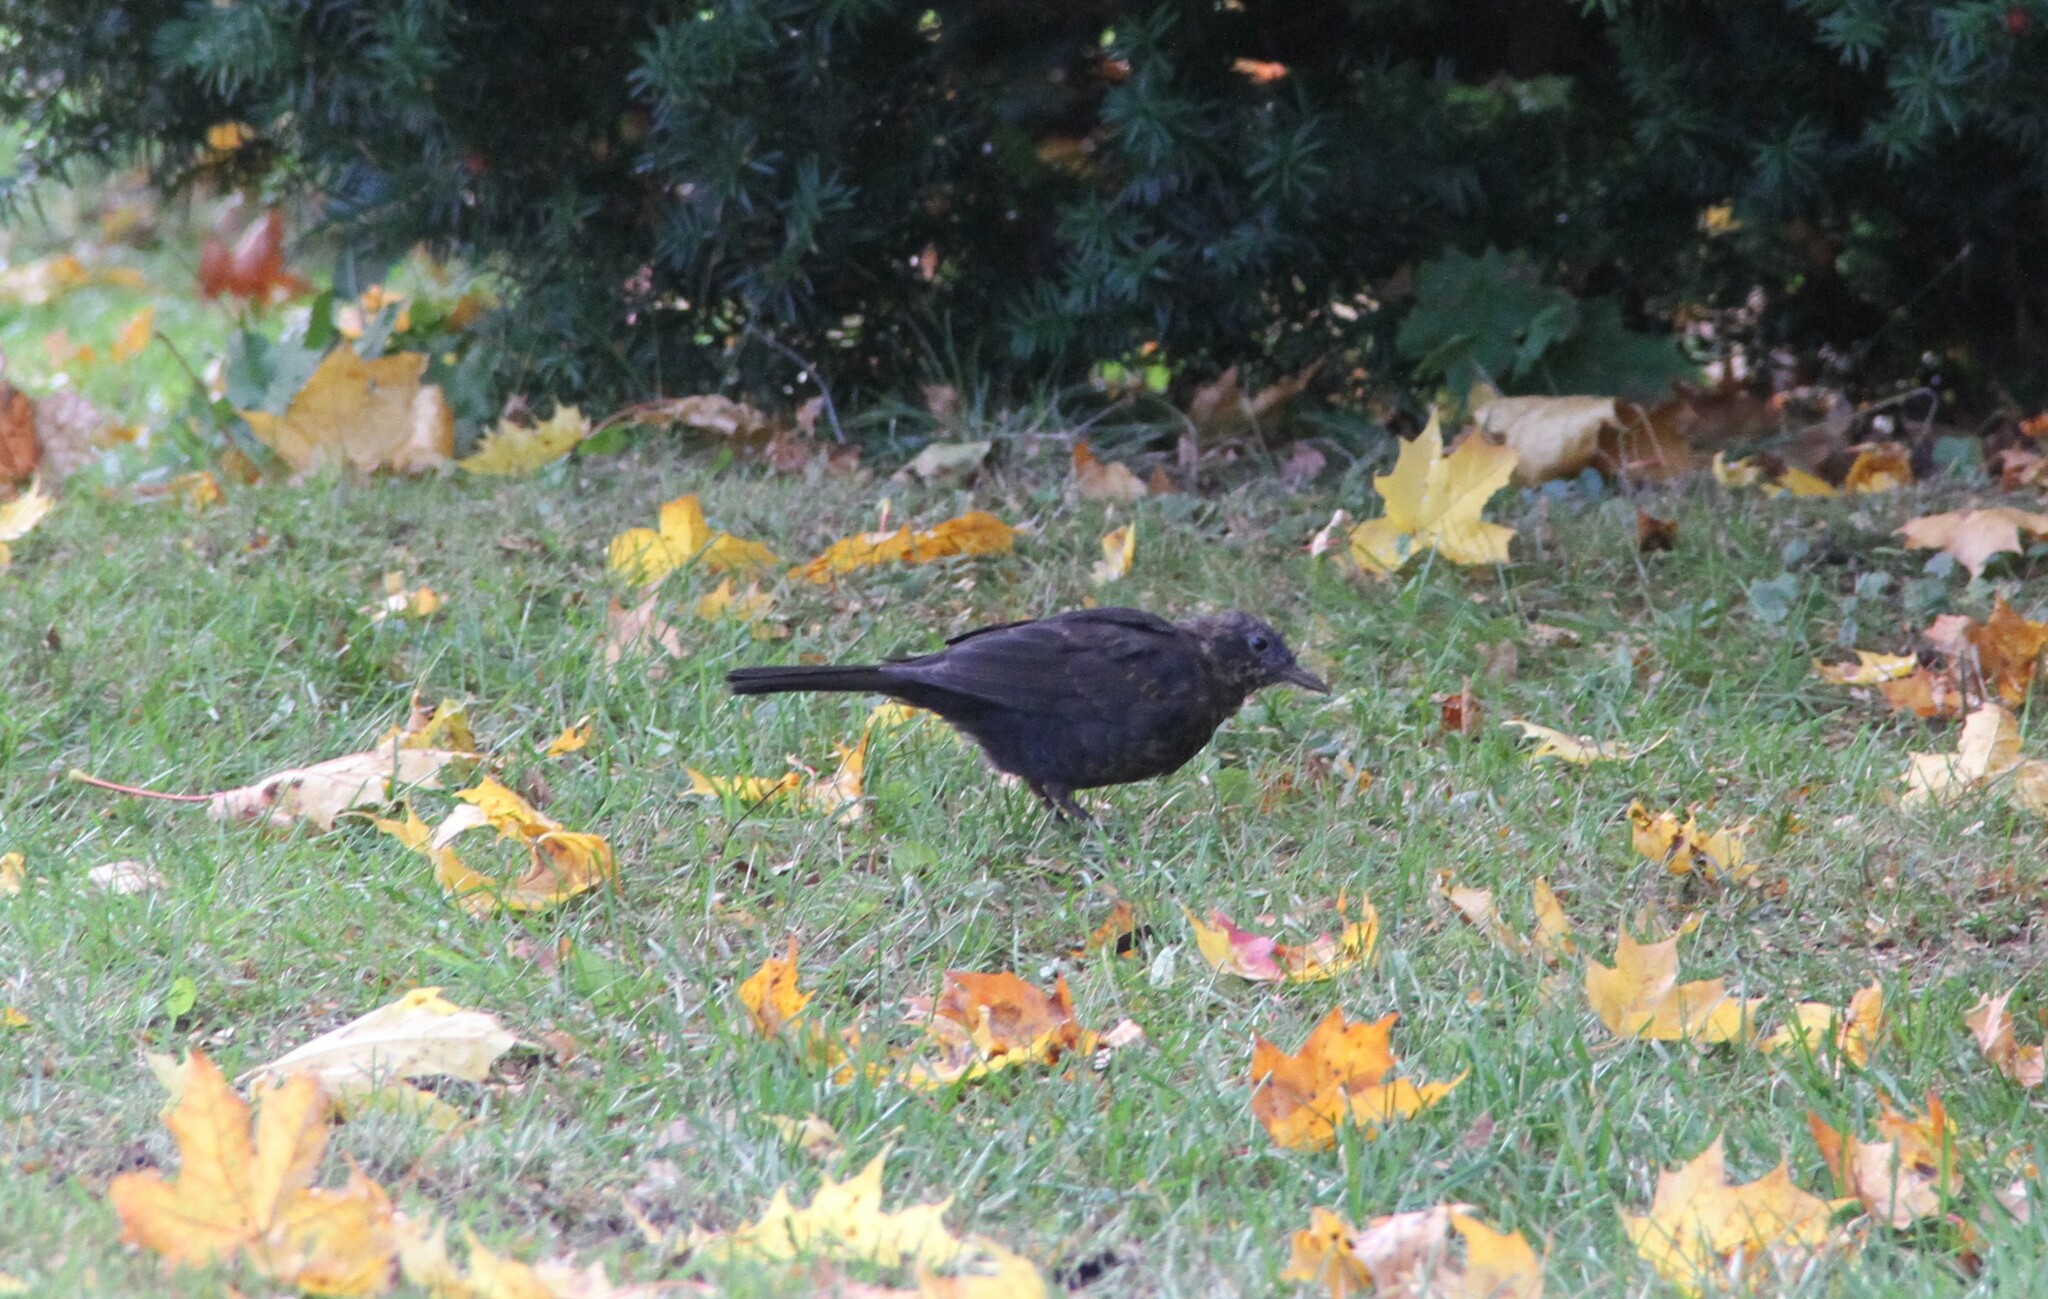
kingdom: Animalia
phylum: Chordata
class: Aves
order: Passeriformes
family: Turdidae
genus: Turdus
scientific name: Turdus merula
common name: Common blackbird
